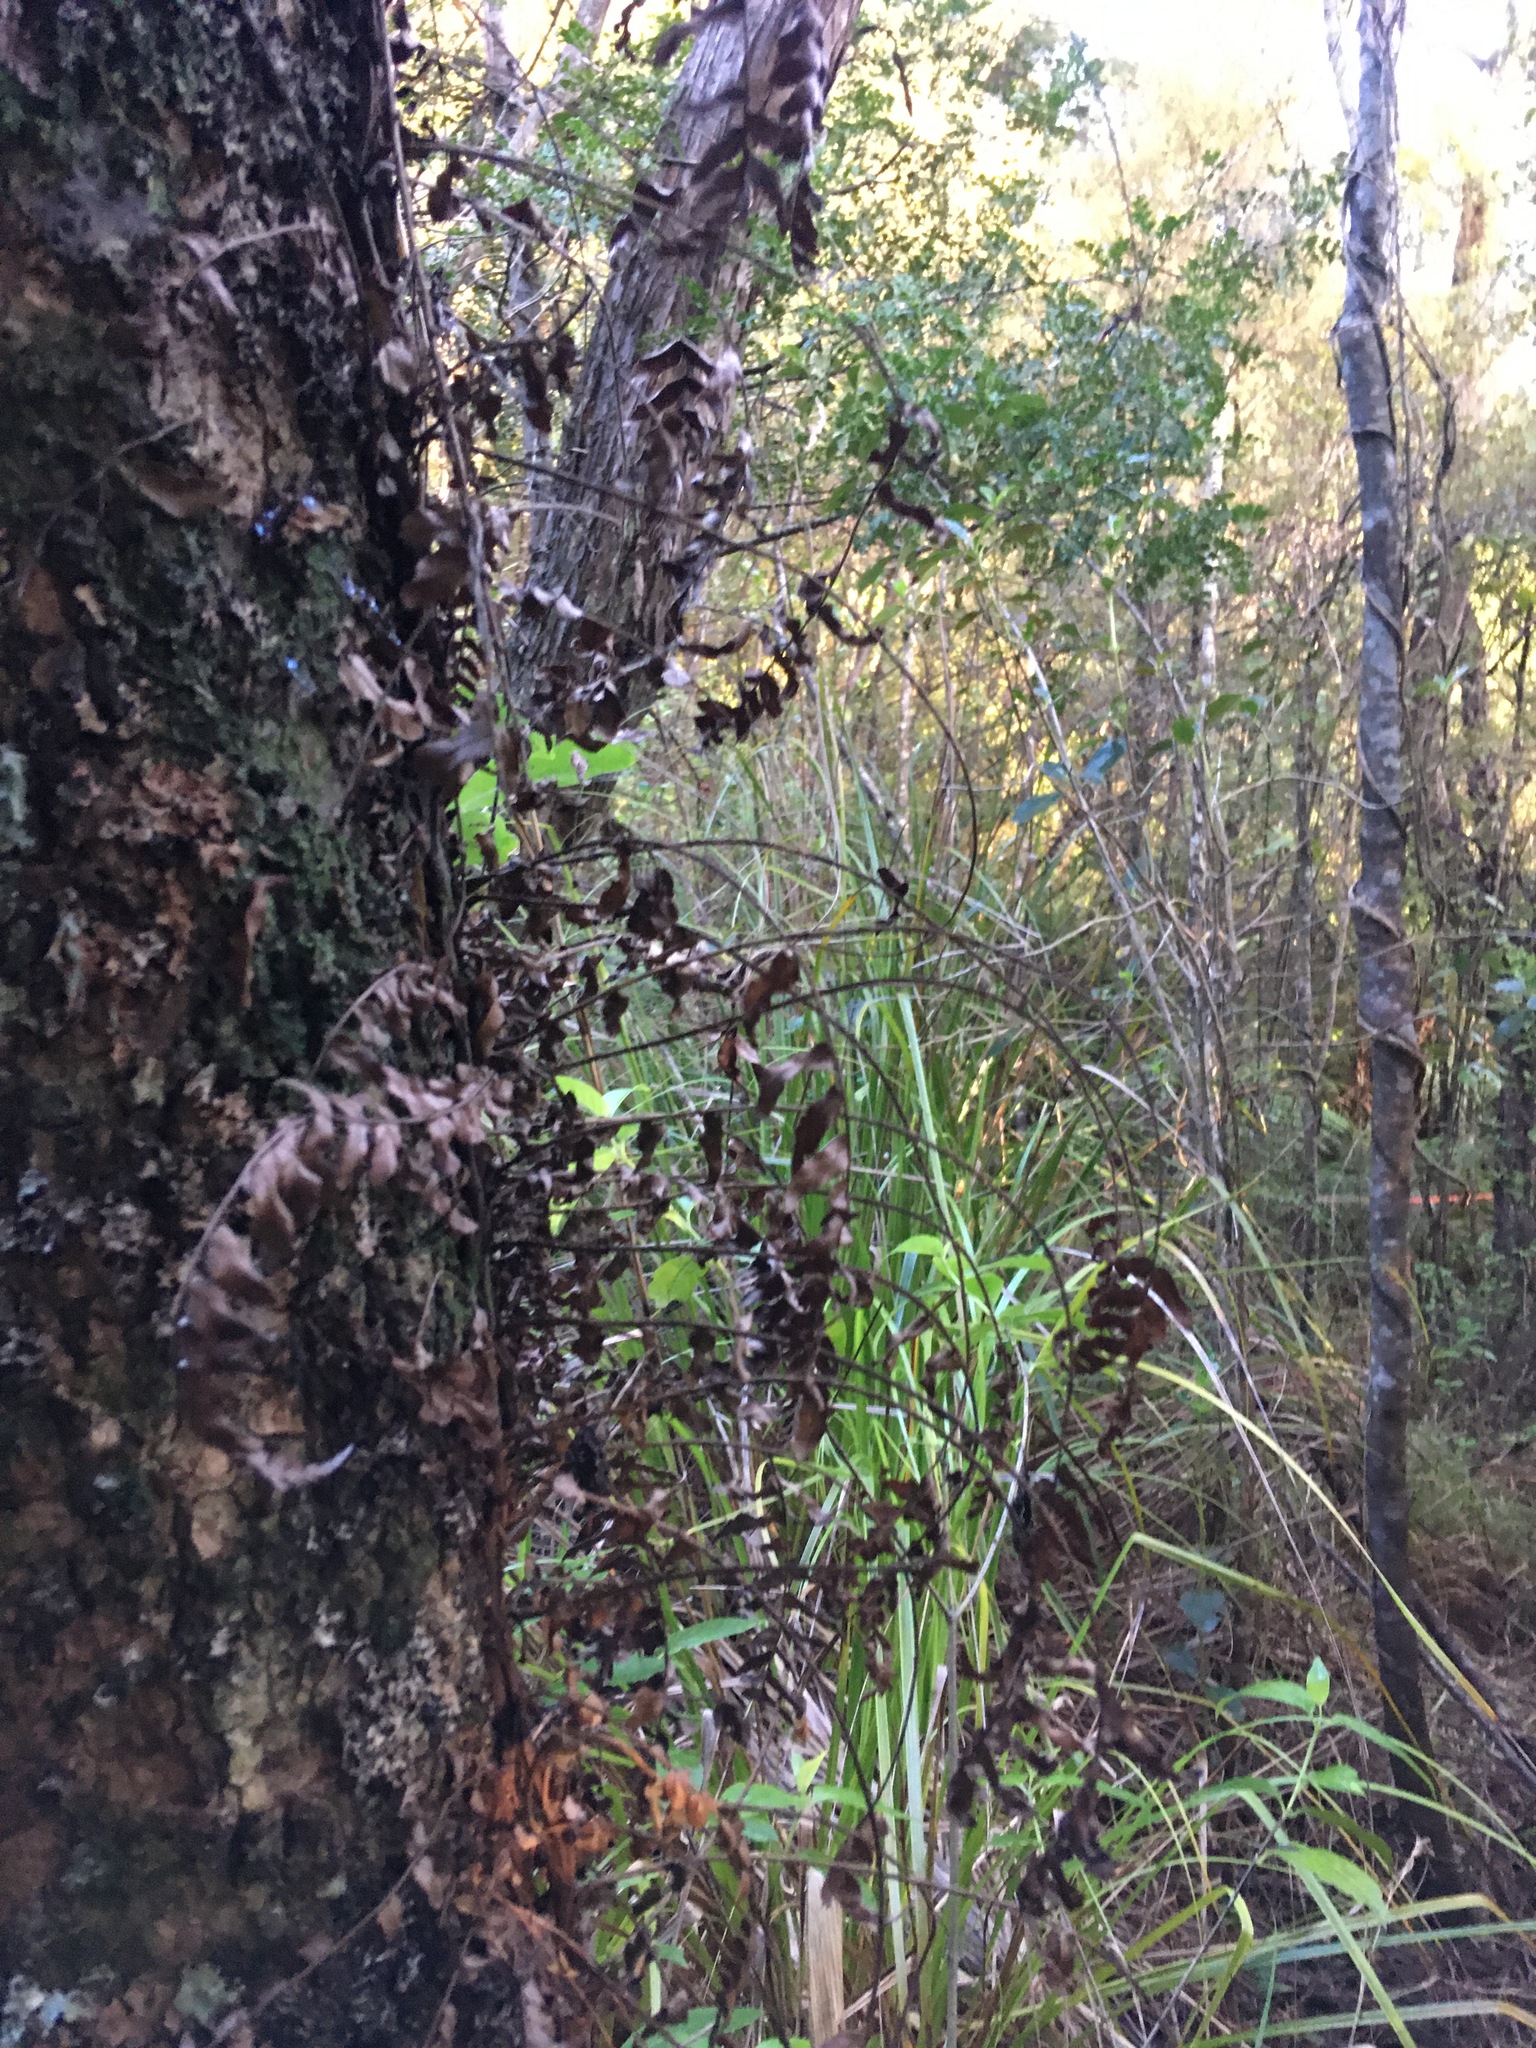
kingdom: Plantae
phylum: Tracheophyta
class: Polypodiopsida
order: Polypodiales
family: Blechnaceae
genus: Icarus
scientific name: Icarus filiformis
